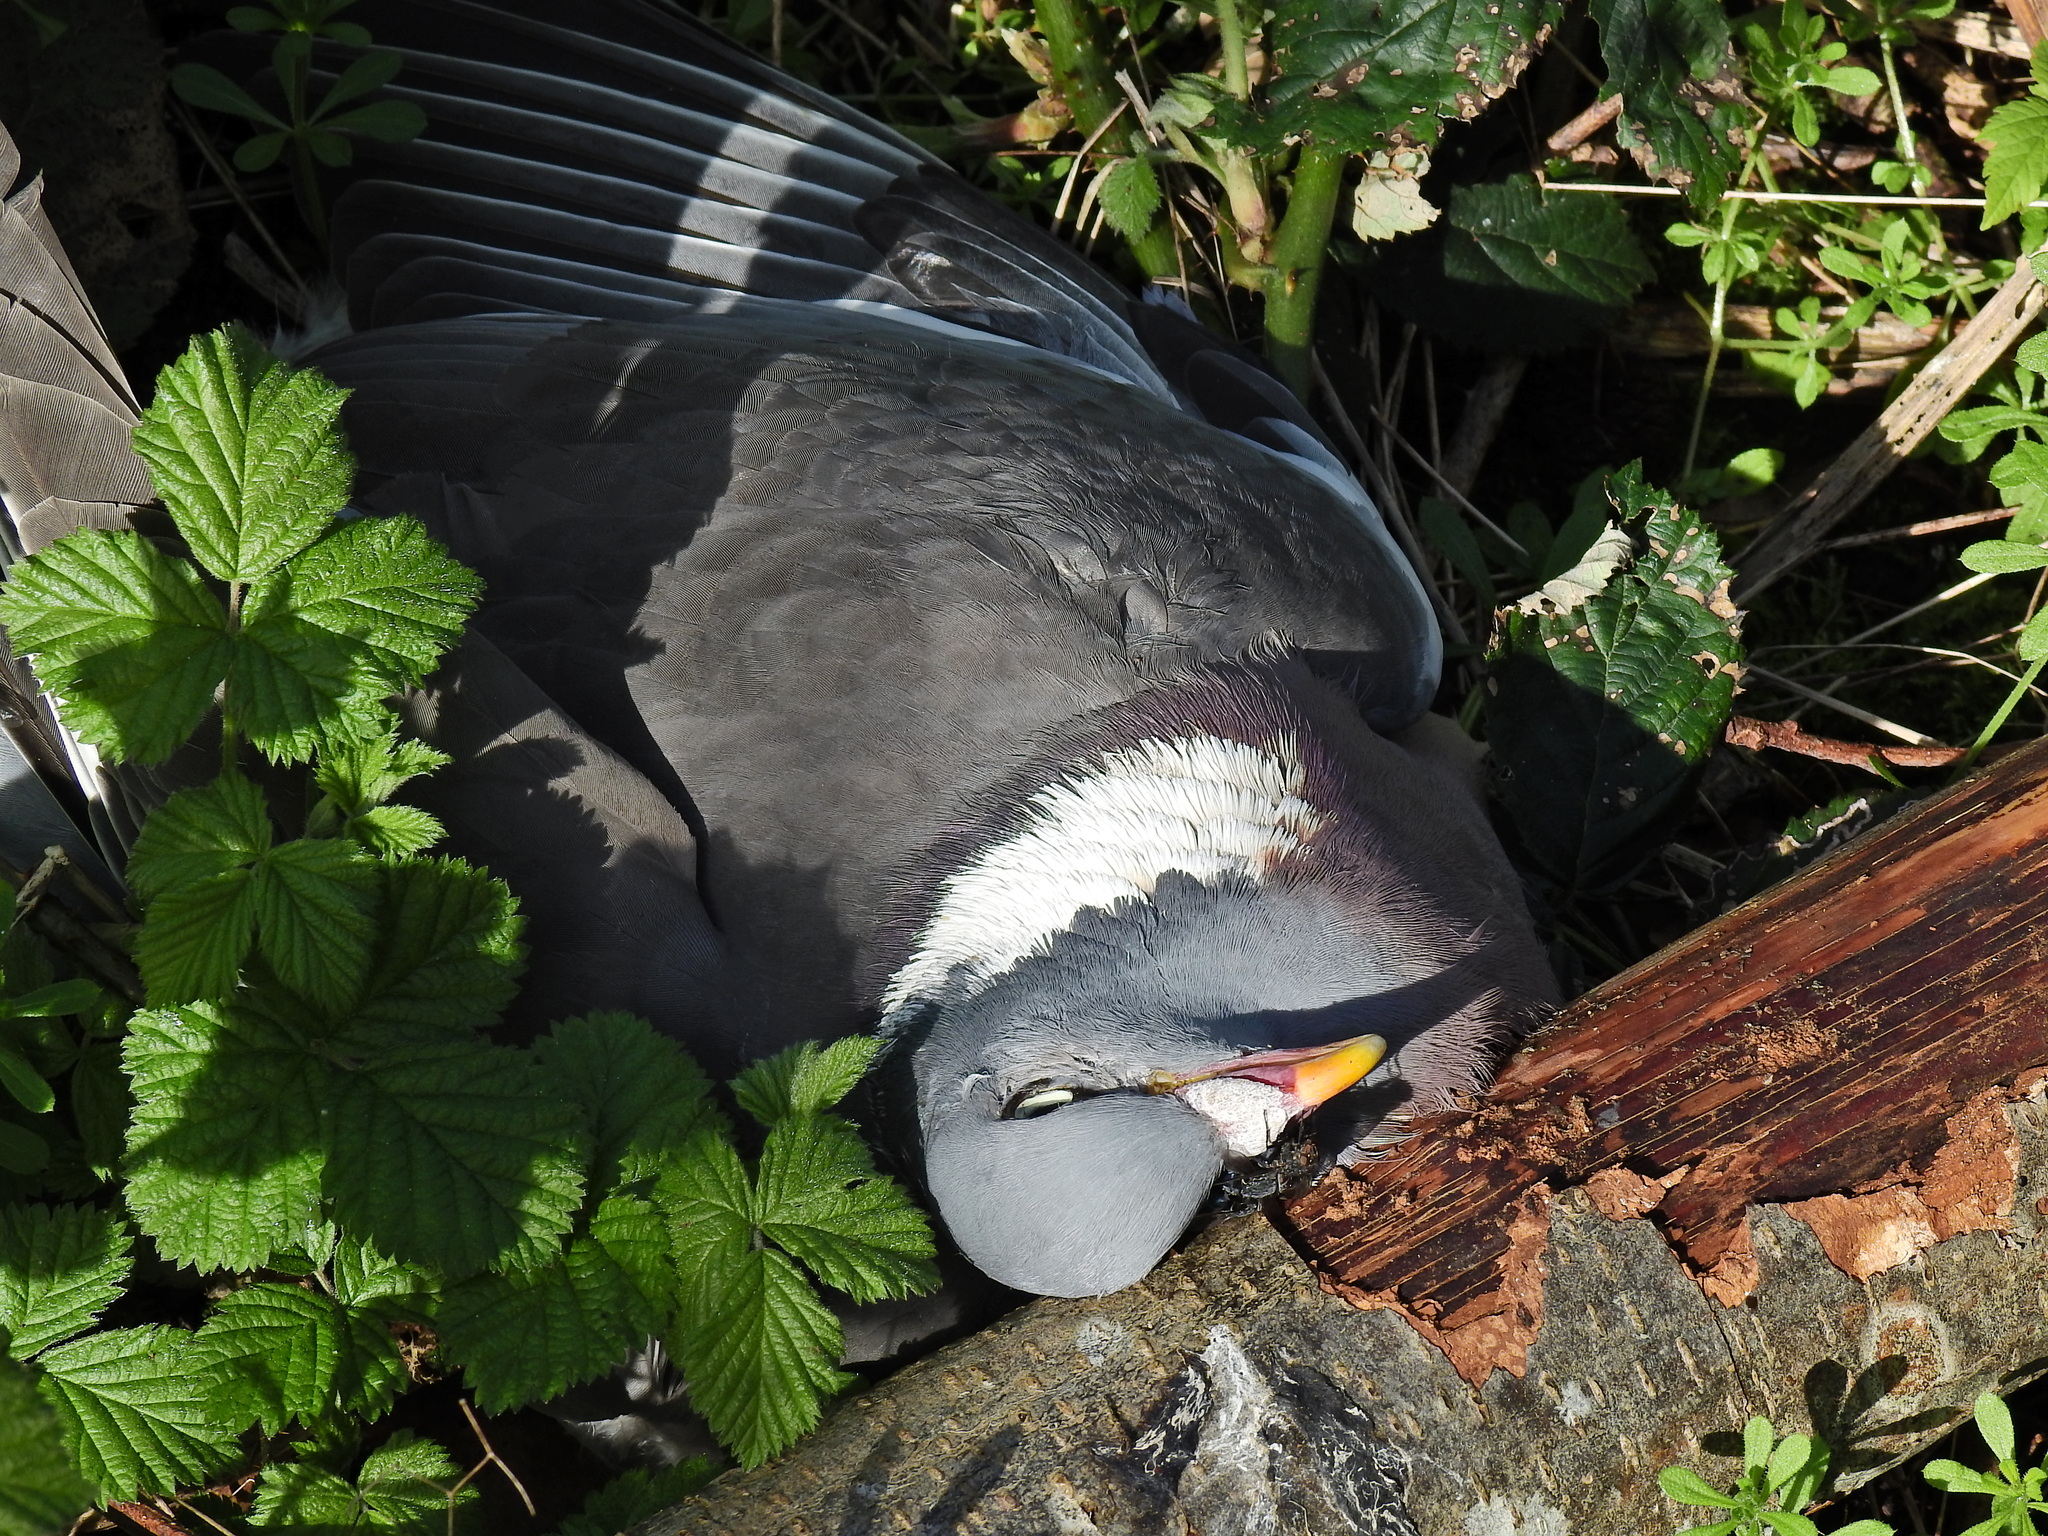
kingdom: Animalia
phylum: Chordata
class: Aves
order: Columbiformes
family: Columbidae
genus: Columba
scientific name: Columba palumbus
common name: Common wood pigeon
